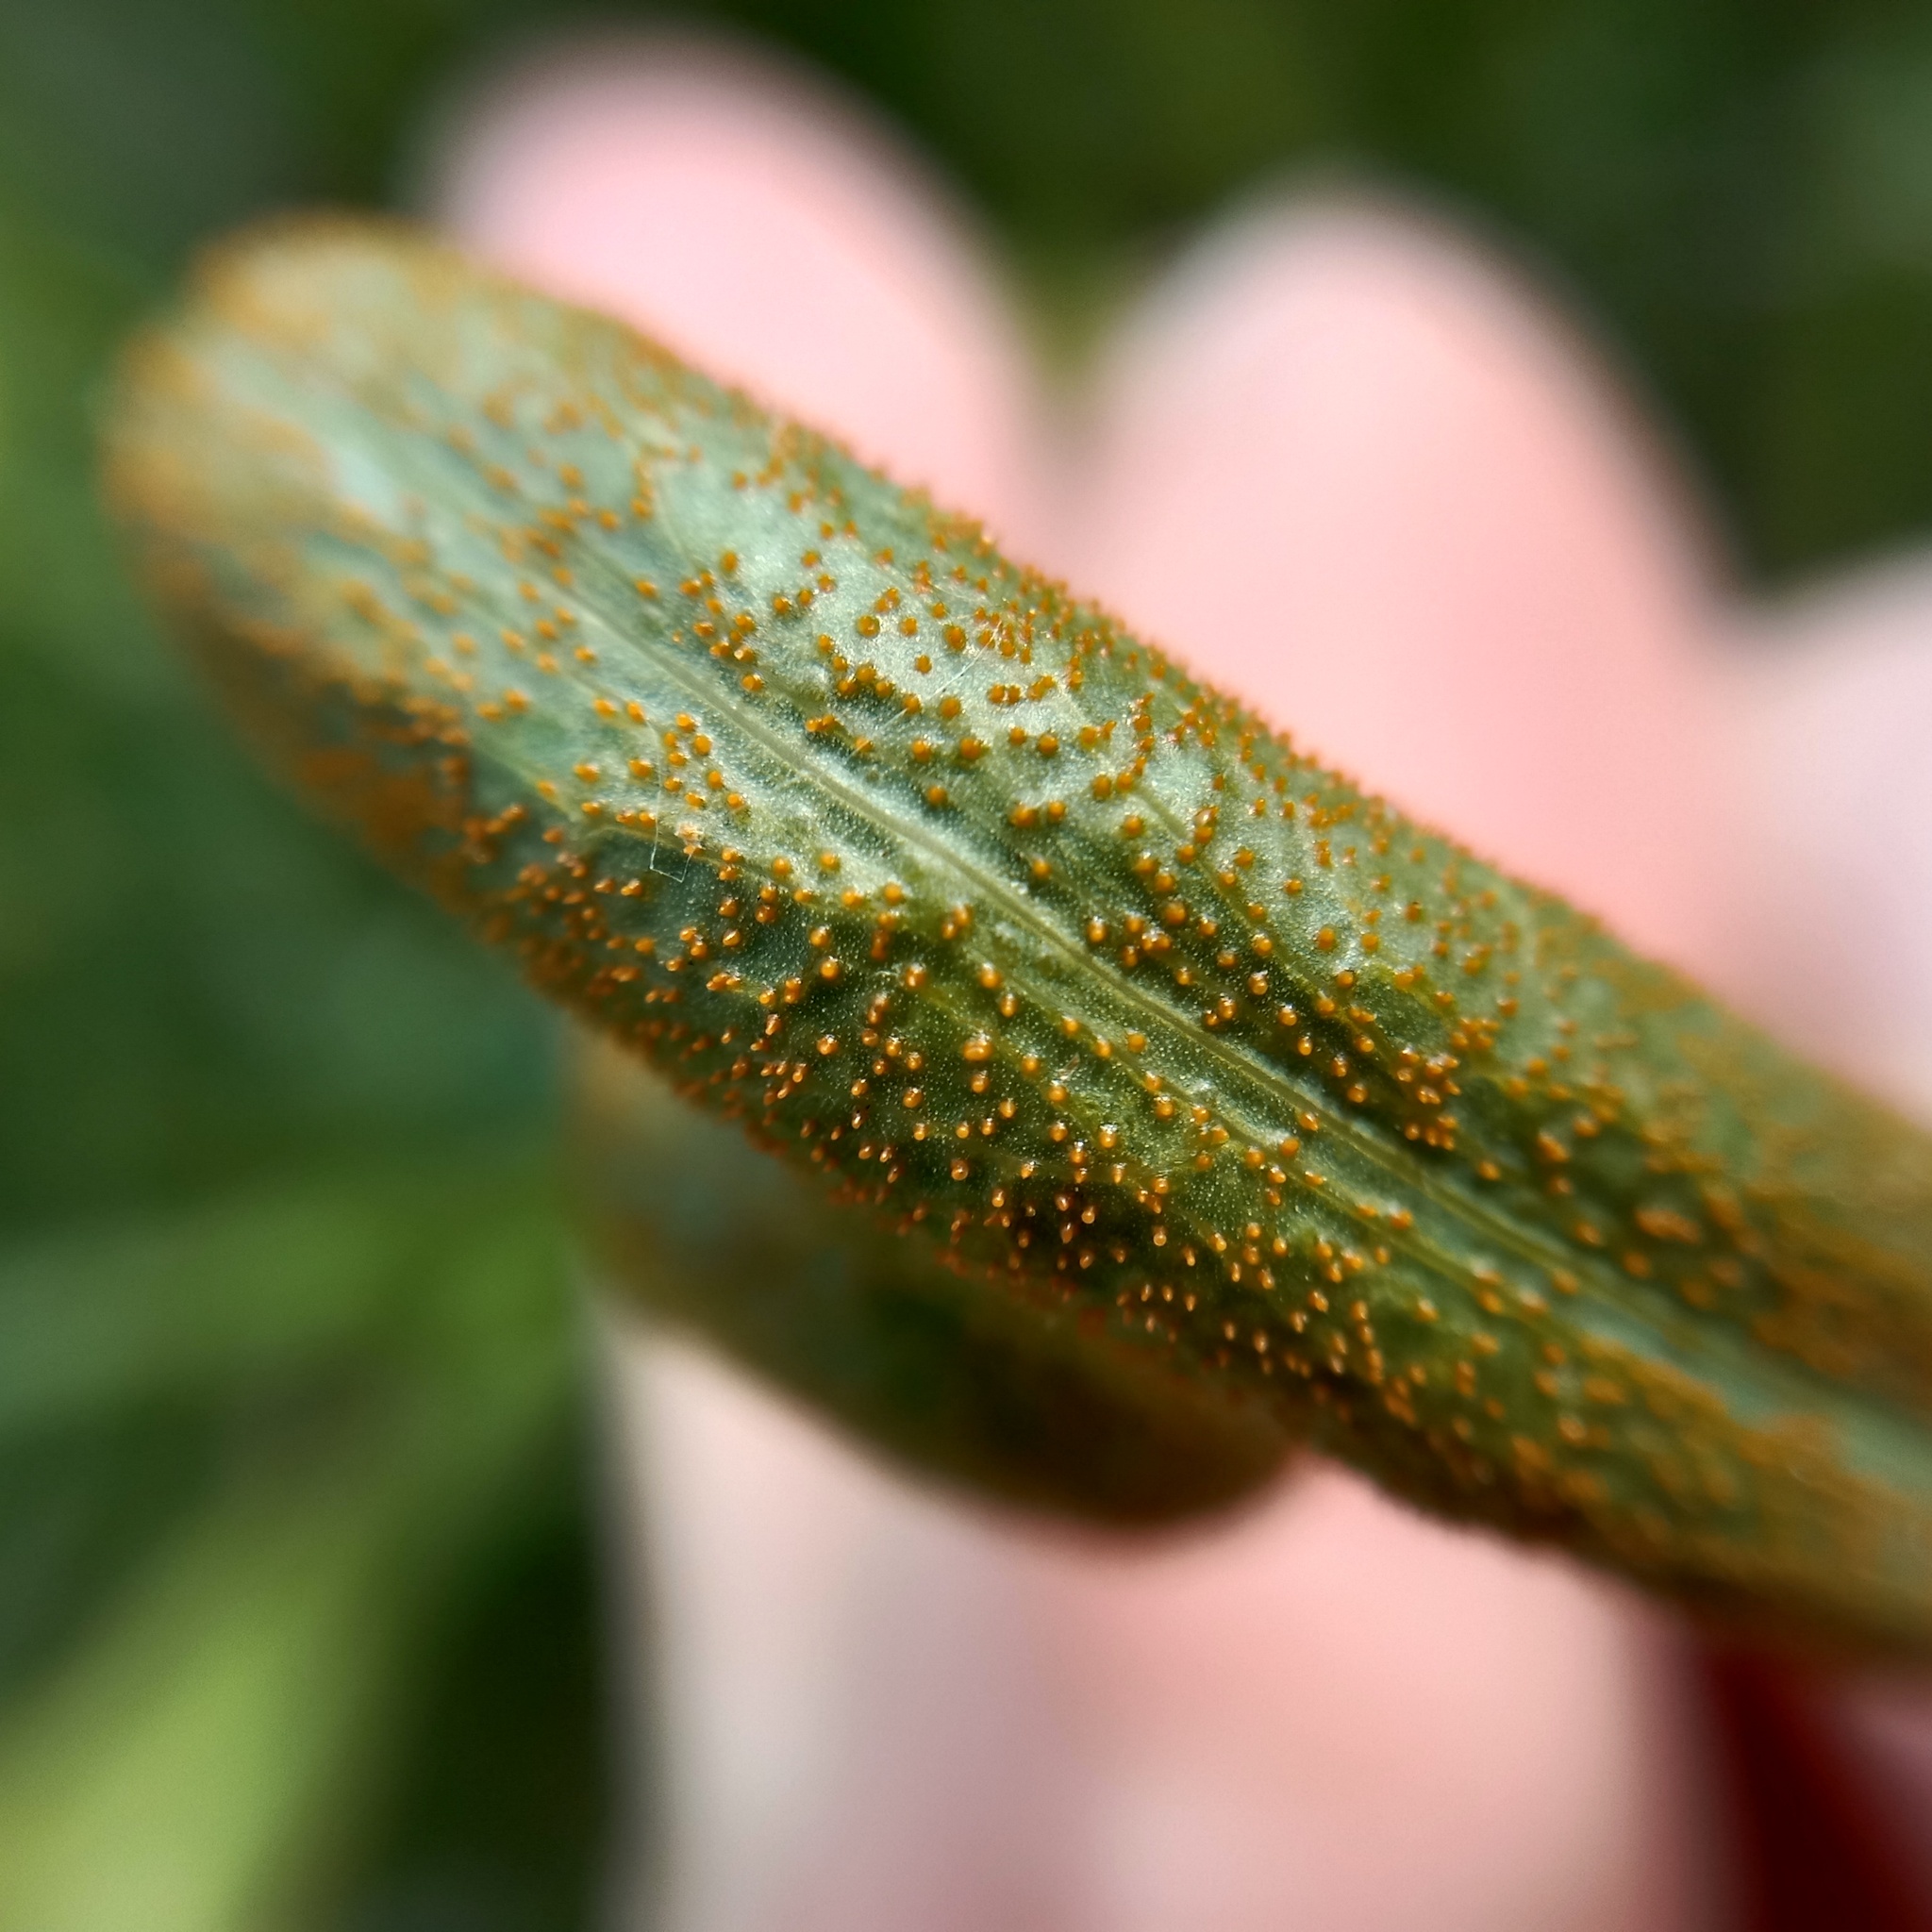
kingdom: Fungi
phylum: Basidiomycota
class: Pucciniomycetes
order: Pucciniales
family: Pucciniaceae
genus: Puccinia
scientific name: Puccinia sii-falcariae
